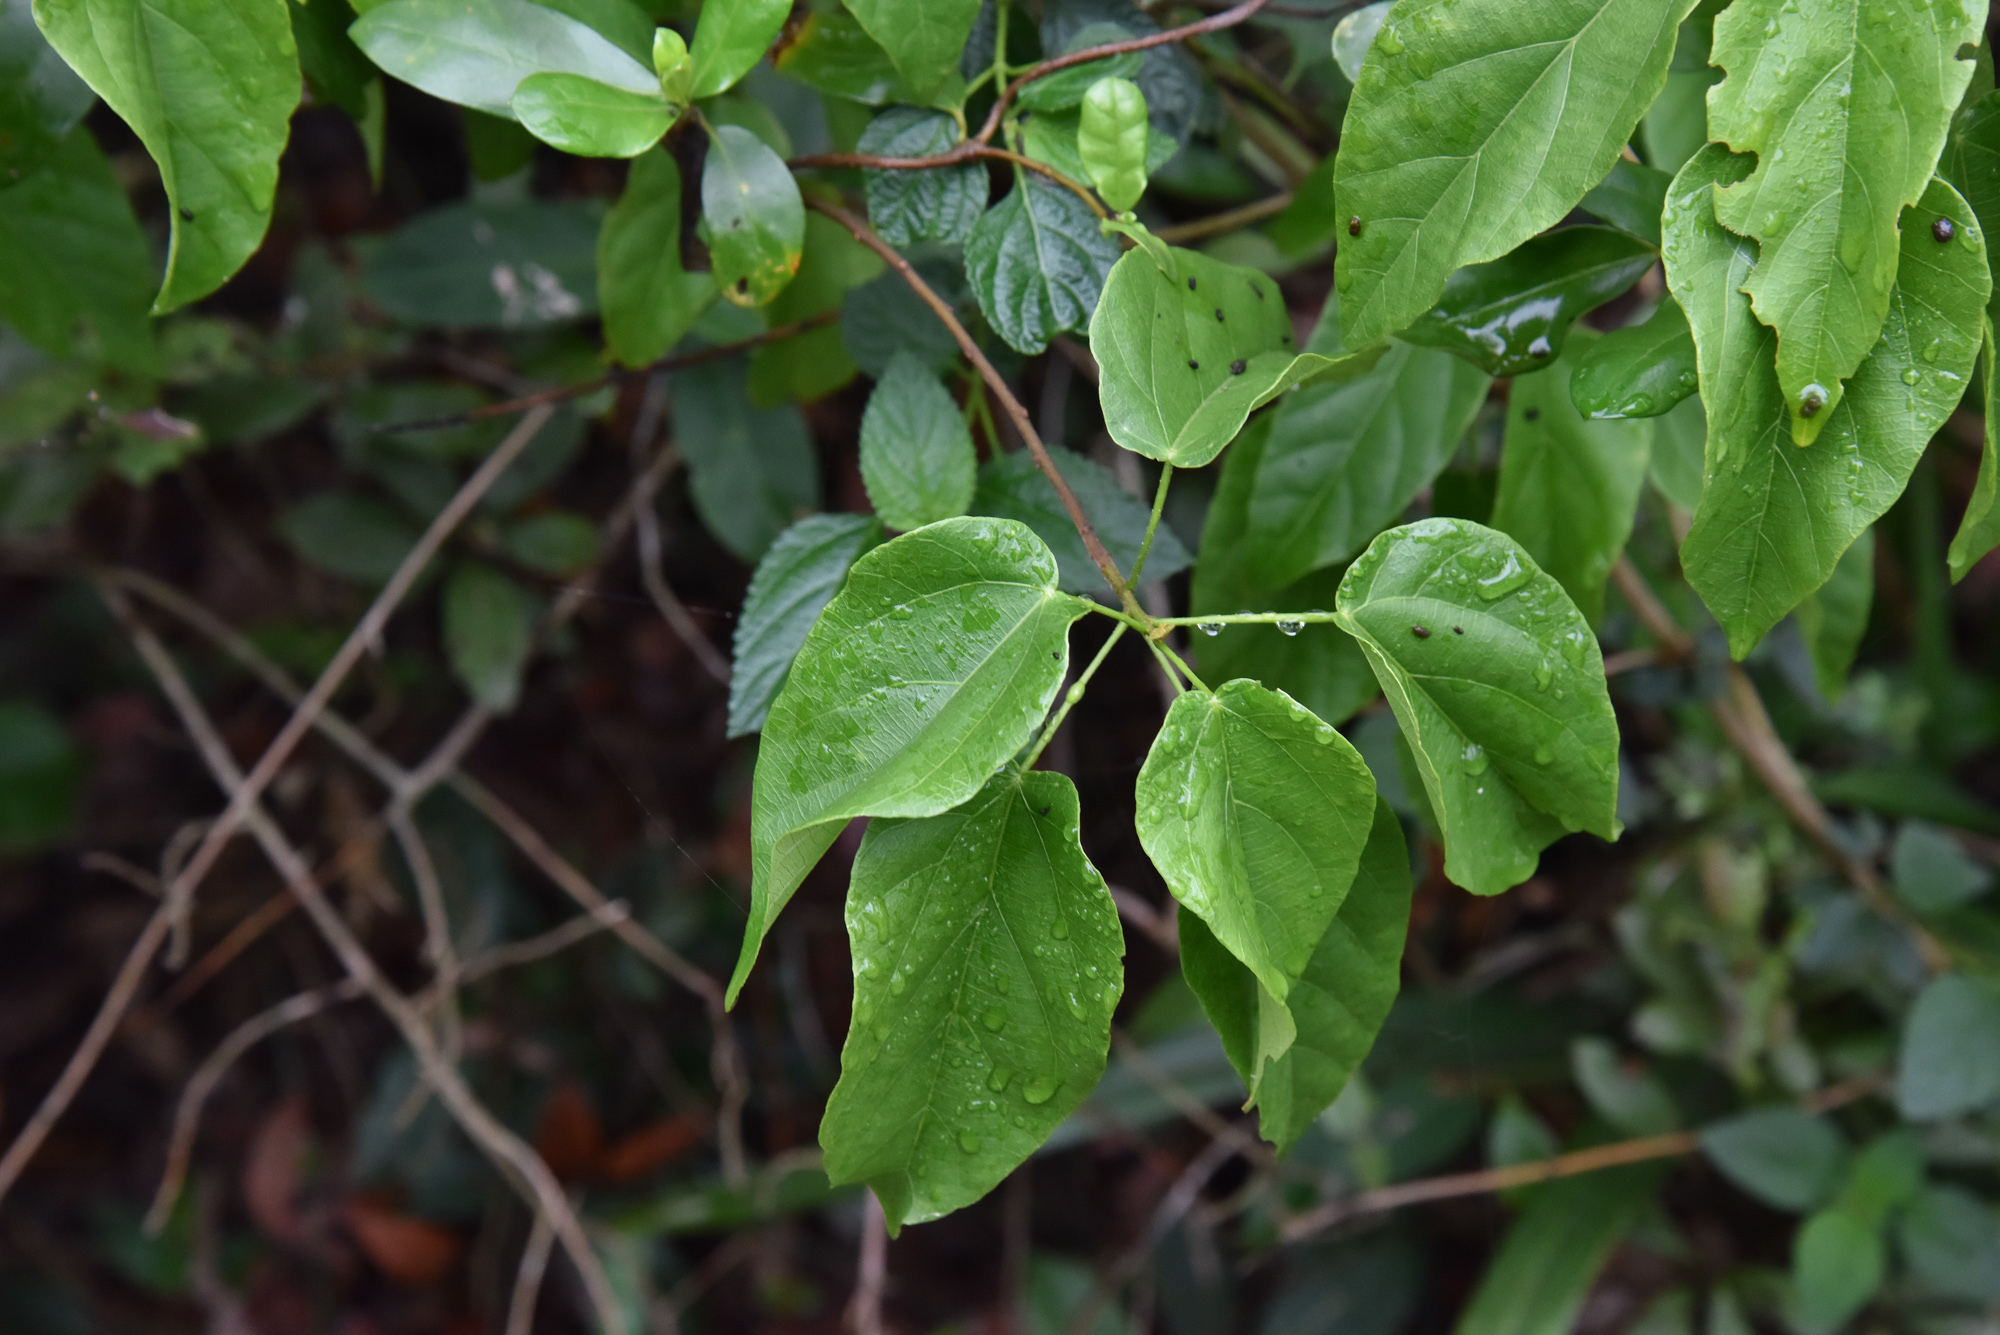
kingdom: Plantae
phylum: Tracheophyta
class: Magnoliopsida
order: Malpighiales
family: Euphorbiaceae
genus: Mallotus
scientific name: Mallotus repandus
